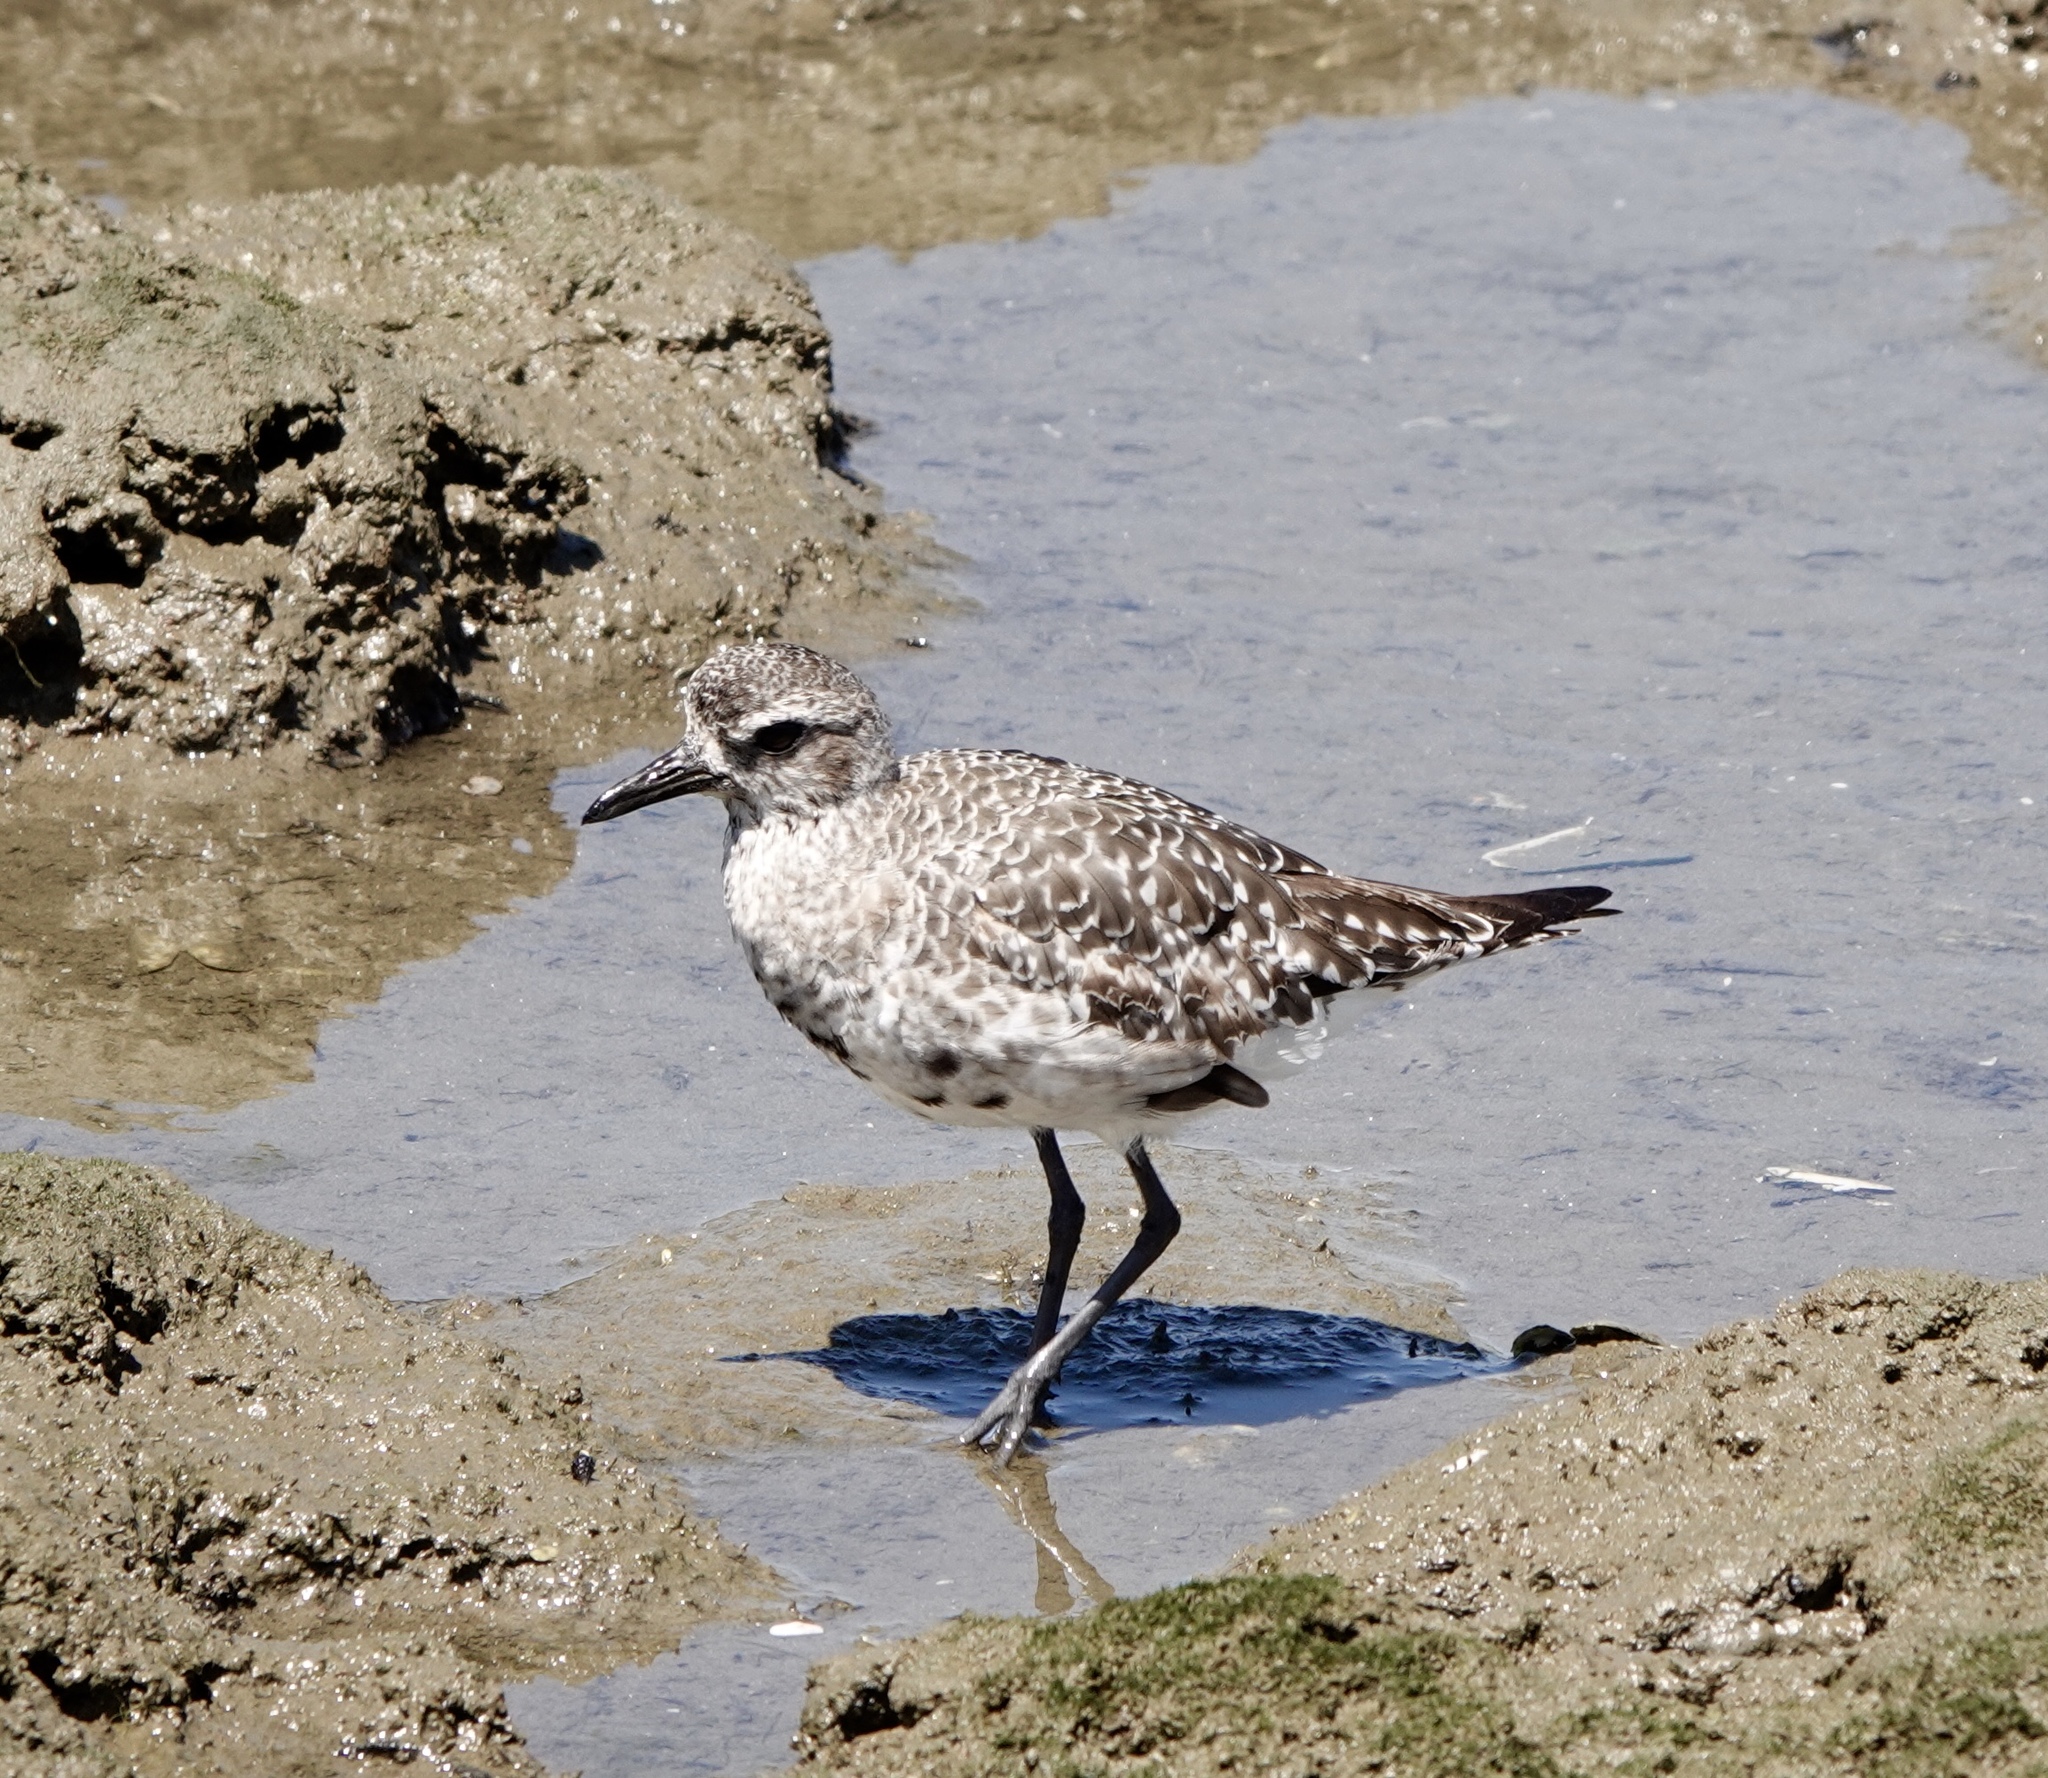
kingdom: Animalia
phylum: Chordata
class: Aves
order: Charadriiformes
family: Charadriidae
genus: Pluvialis
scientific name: Pluvialis squatarola
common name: Grey plover
